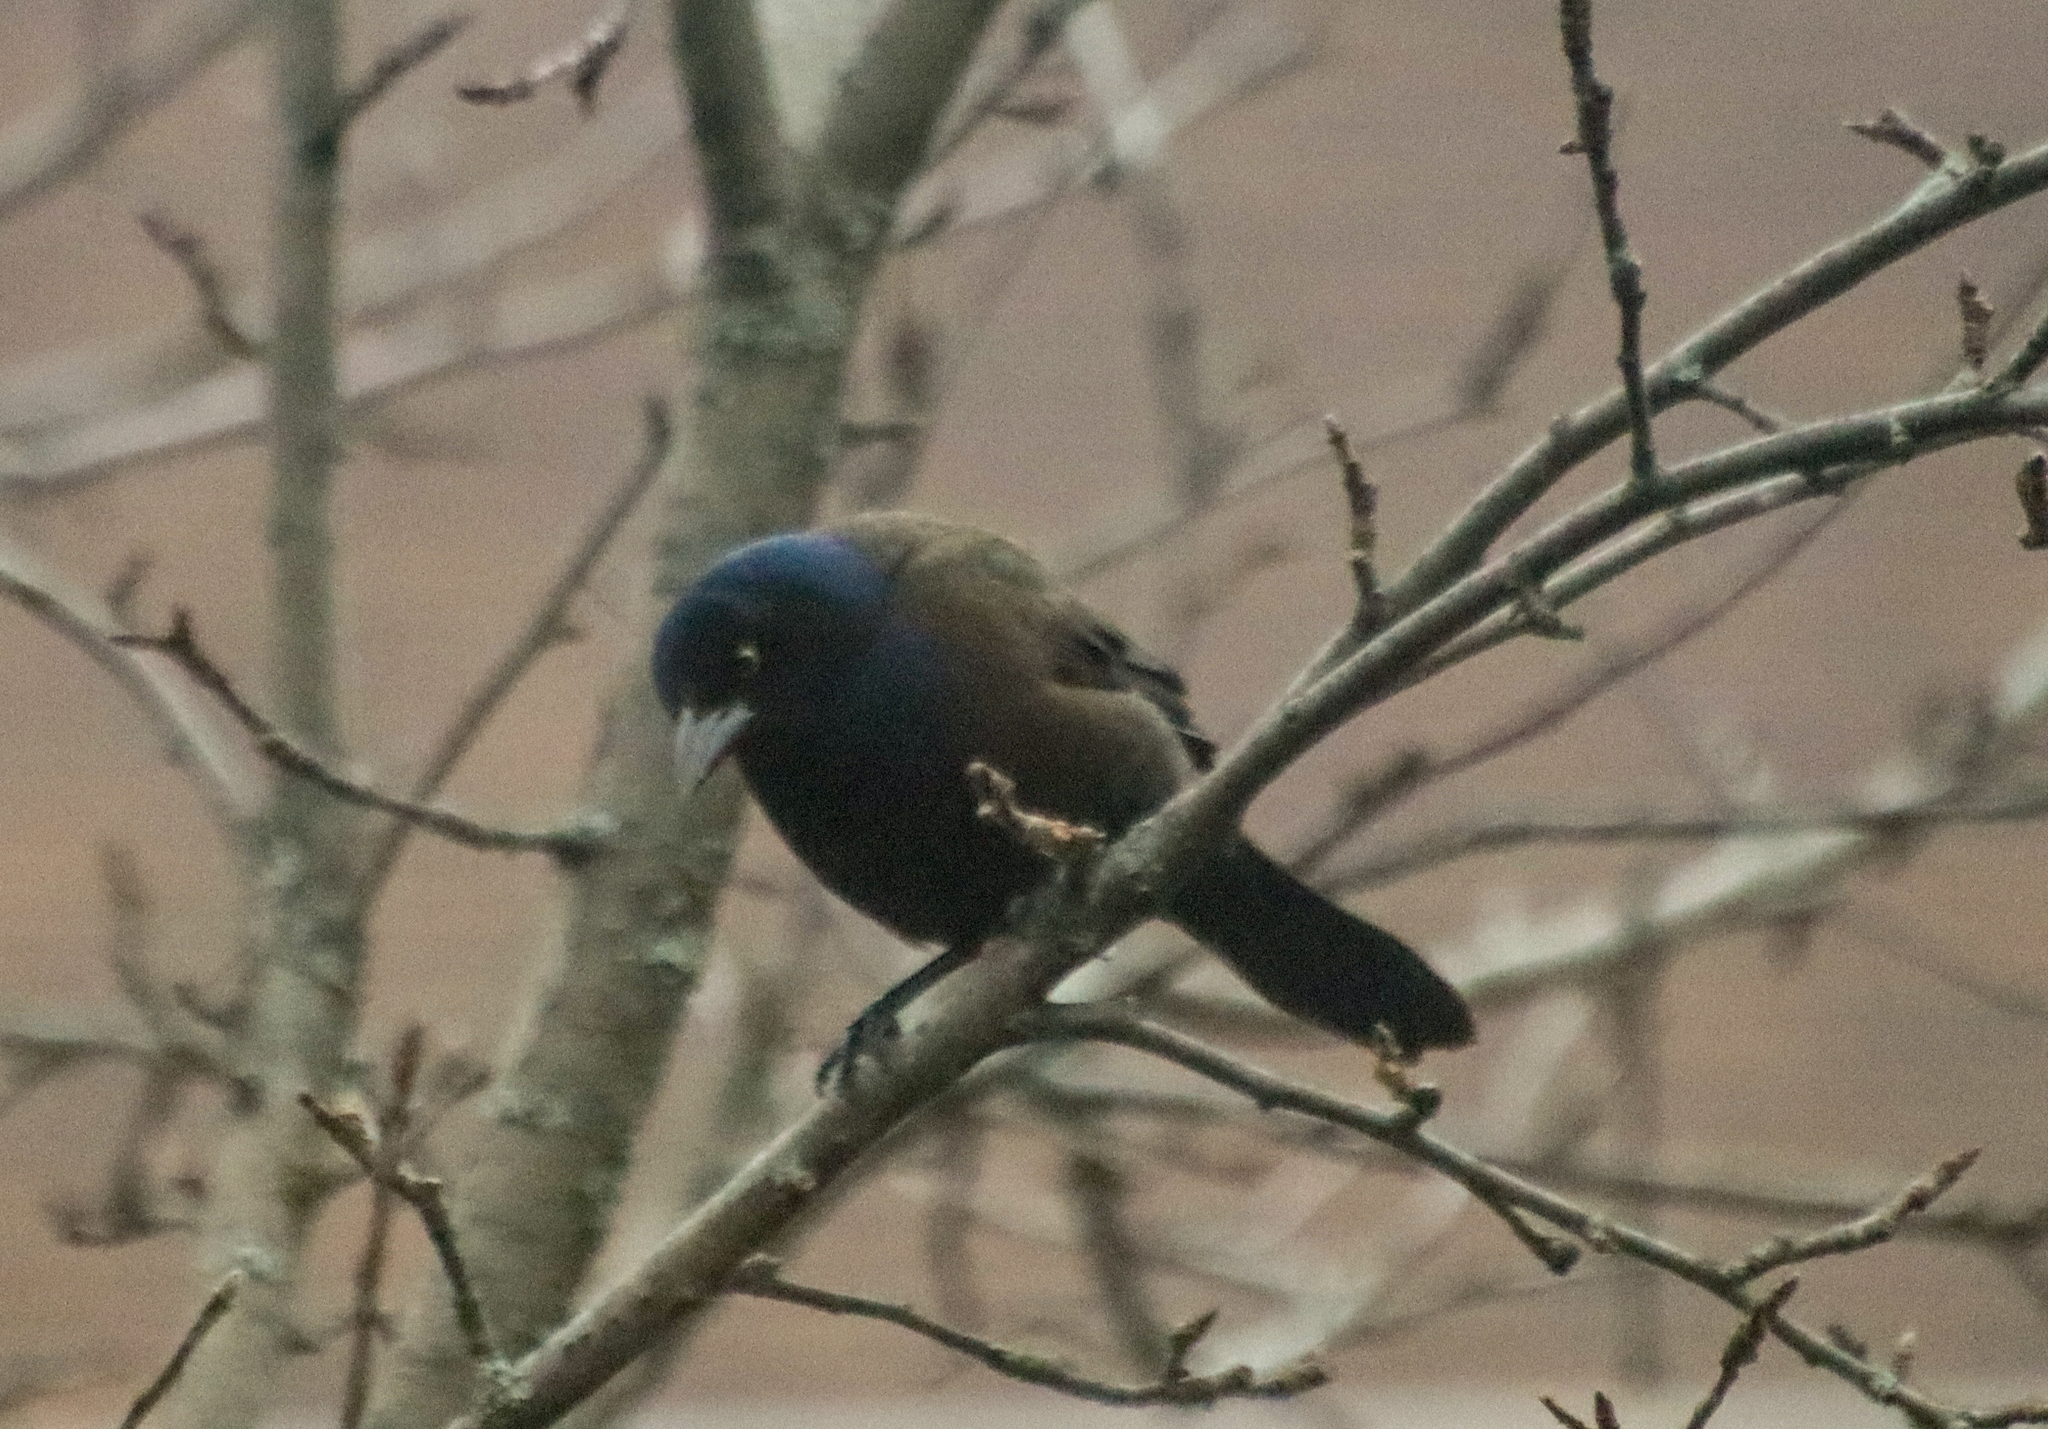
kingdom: Animalia
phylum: Chordata
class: Aves
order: Passeriformes
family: Icteridae
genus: Quiscalus
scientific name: Quiscalus quiscula
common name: Common grackle
